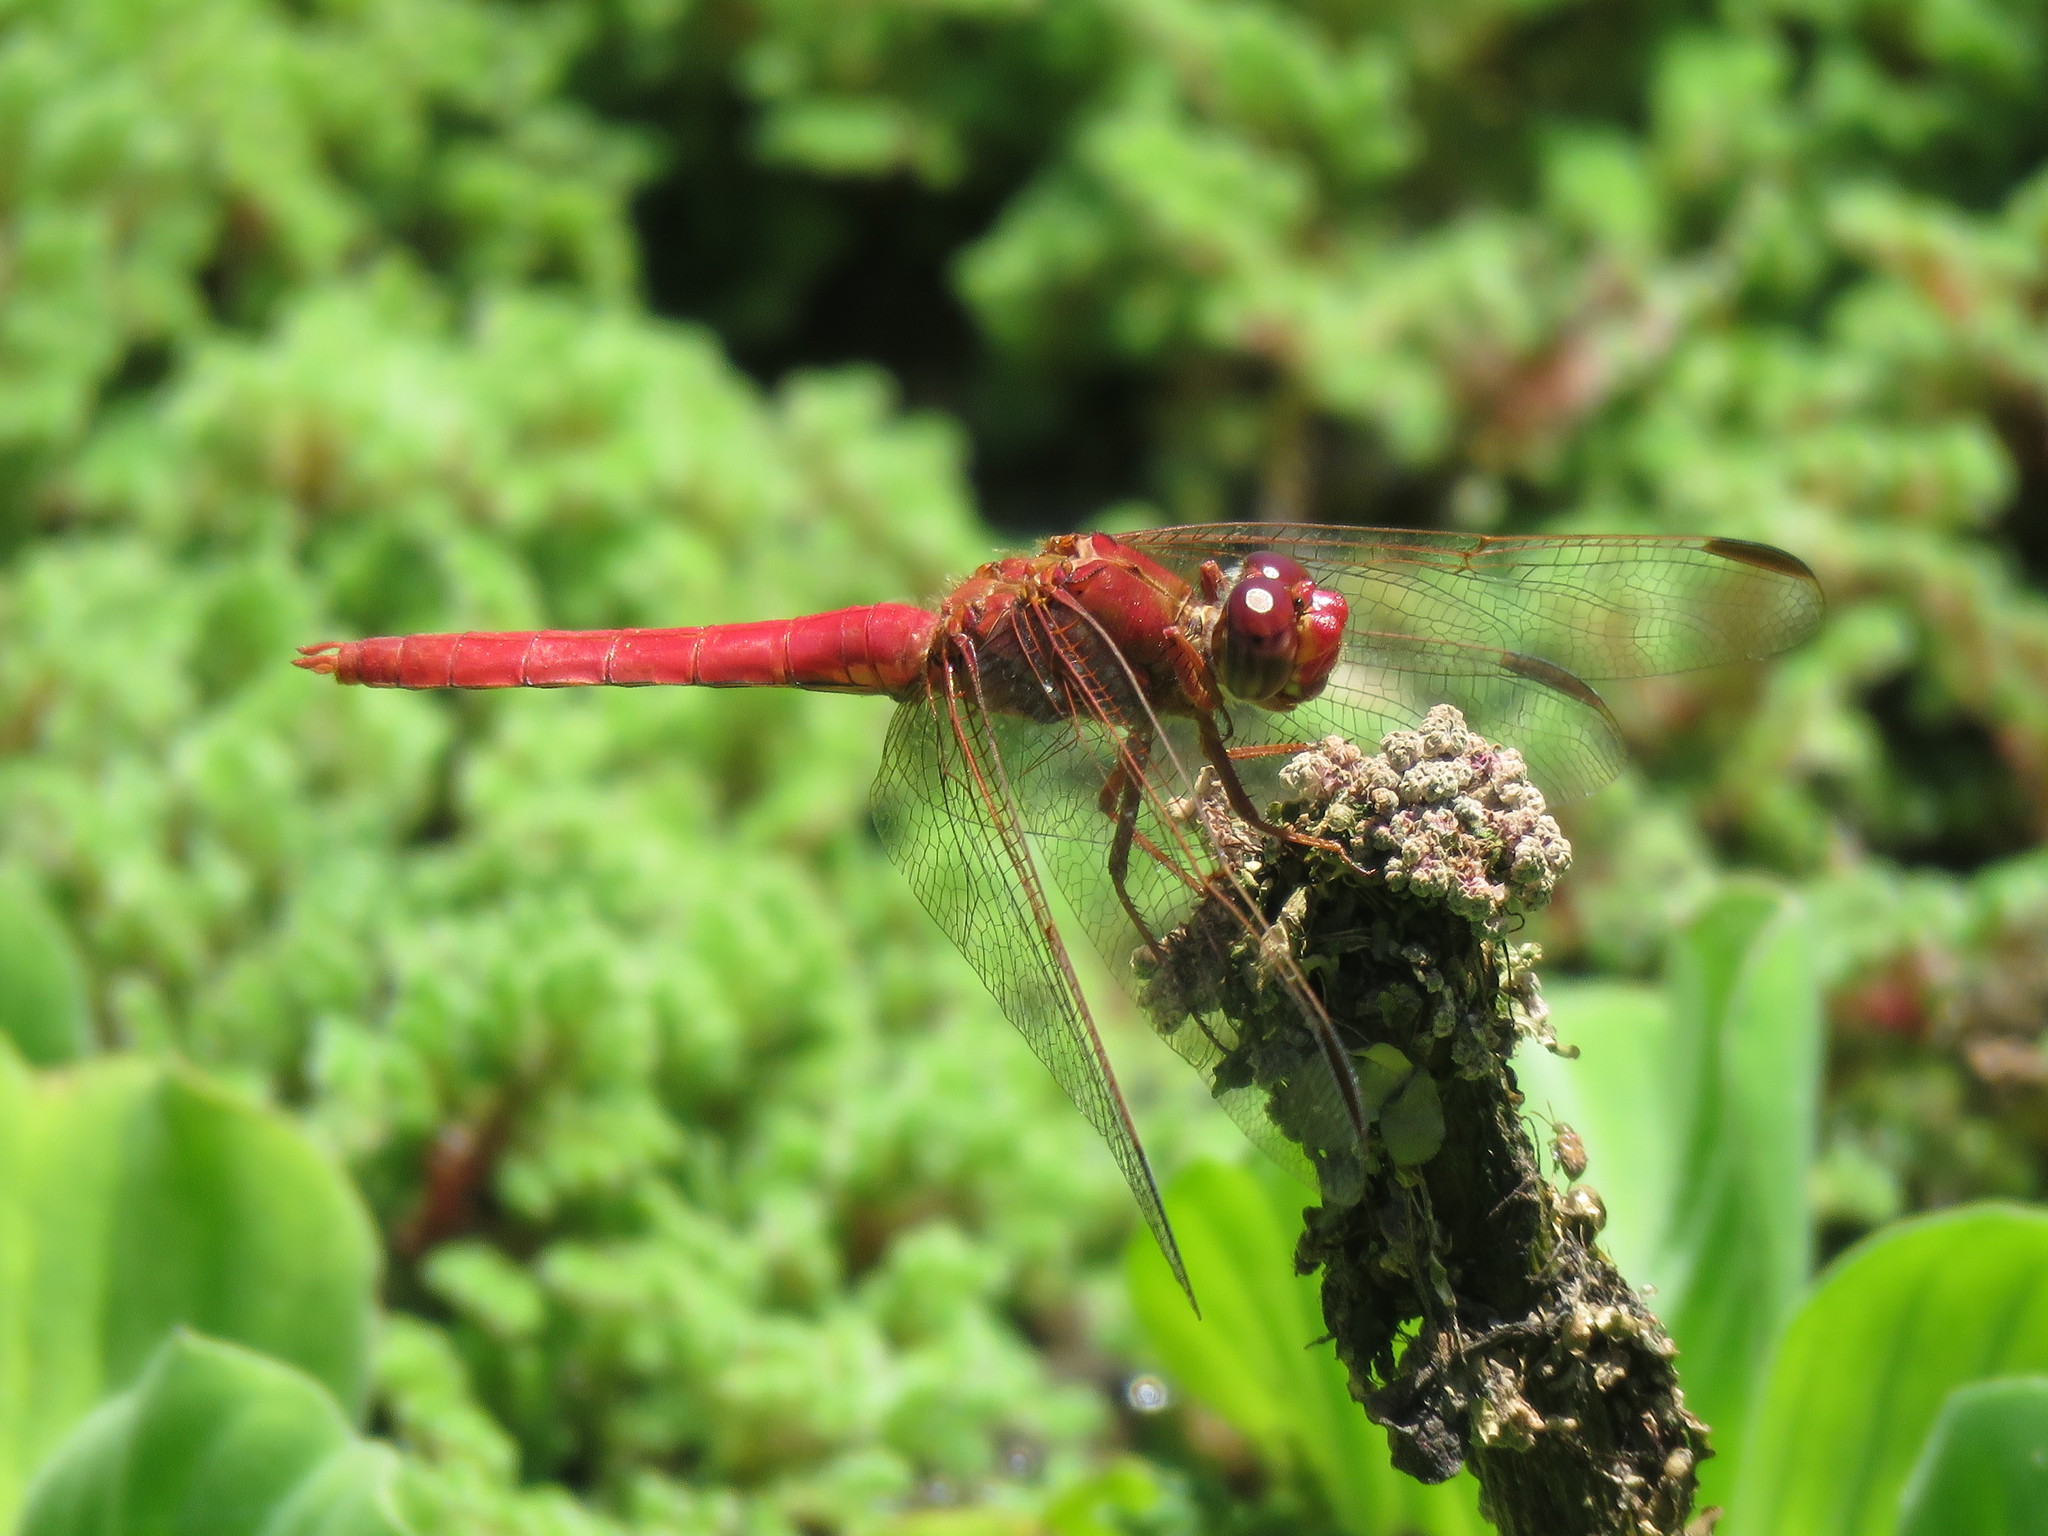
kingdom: Animalia
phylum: Arthropoda
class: Insecta
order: Odonata
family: Libellulidae
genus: Orthemis
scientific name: Orthemis nodiplaga
